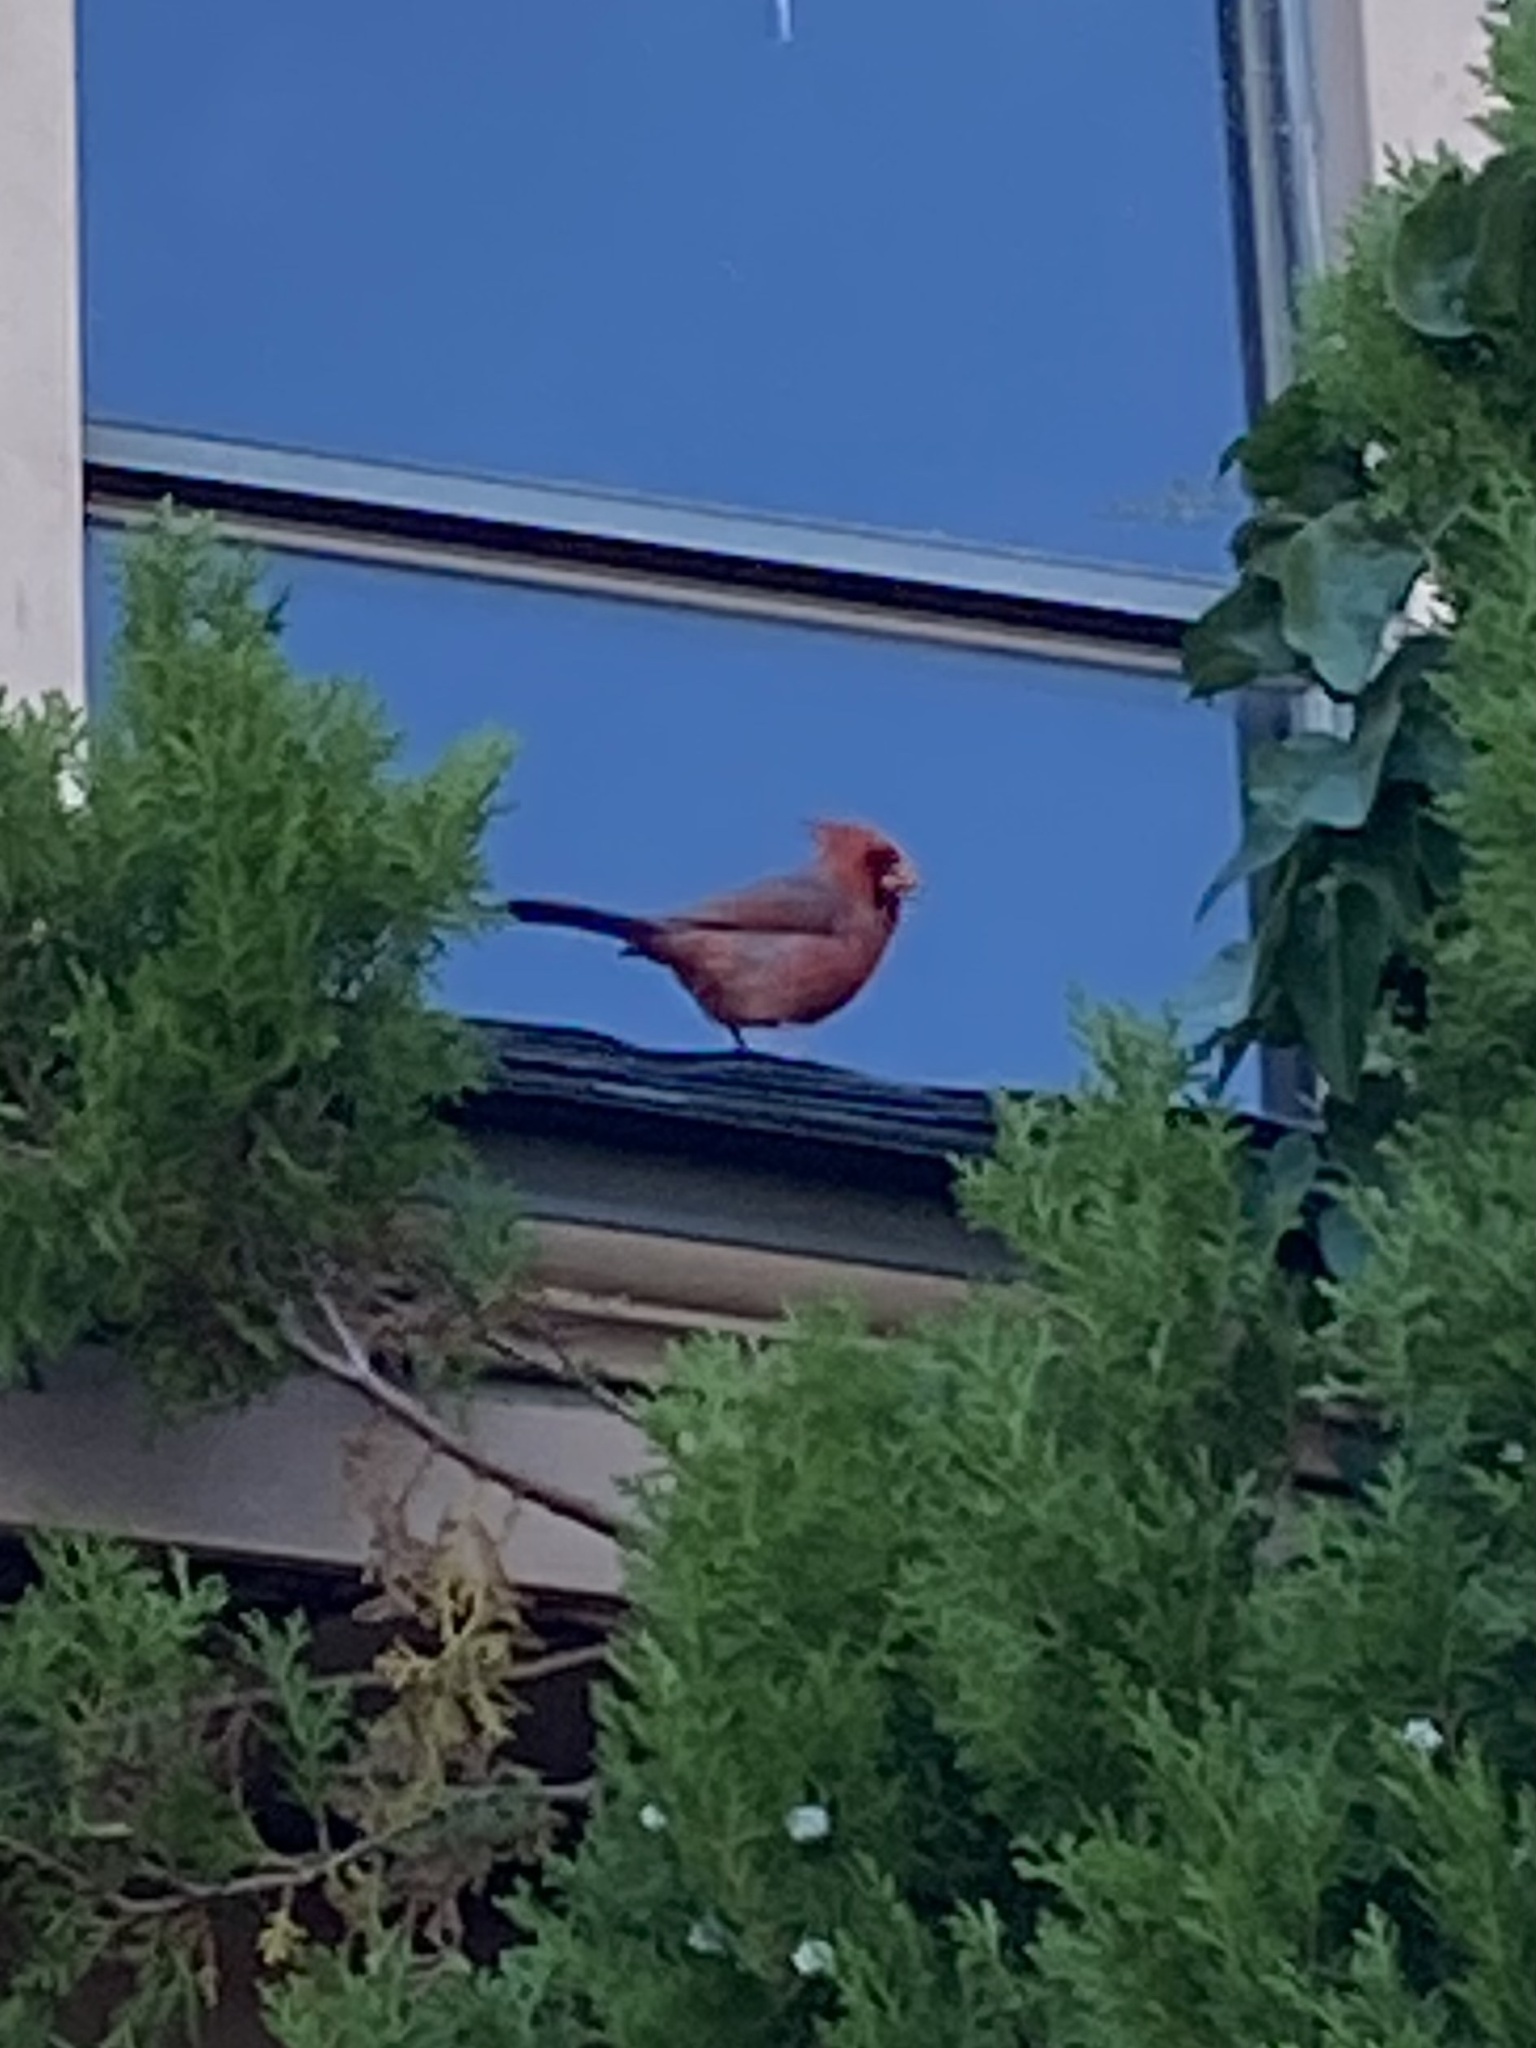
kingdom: Animalia
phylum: Chordata
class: Aves
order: Passeriformes
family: Cardinalidae
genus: Cardinalis
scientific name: Cardinalis cardinalis
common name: Northern cardinal
